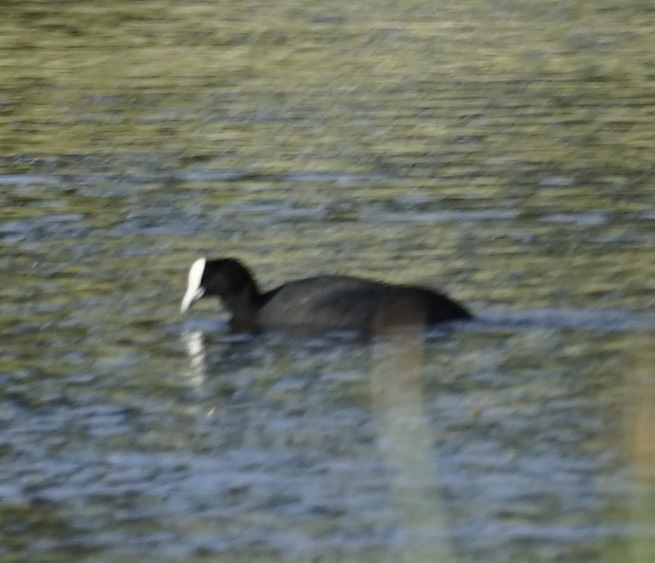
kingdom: Animalia
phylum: Chordata
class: Aves
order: Gruiformes
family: Rallidae
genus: Fulica
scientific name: Fulica atra
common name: Eurasian coot
